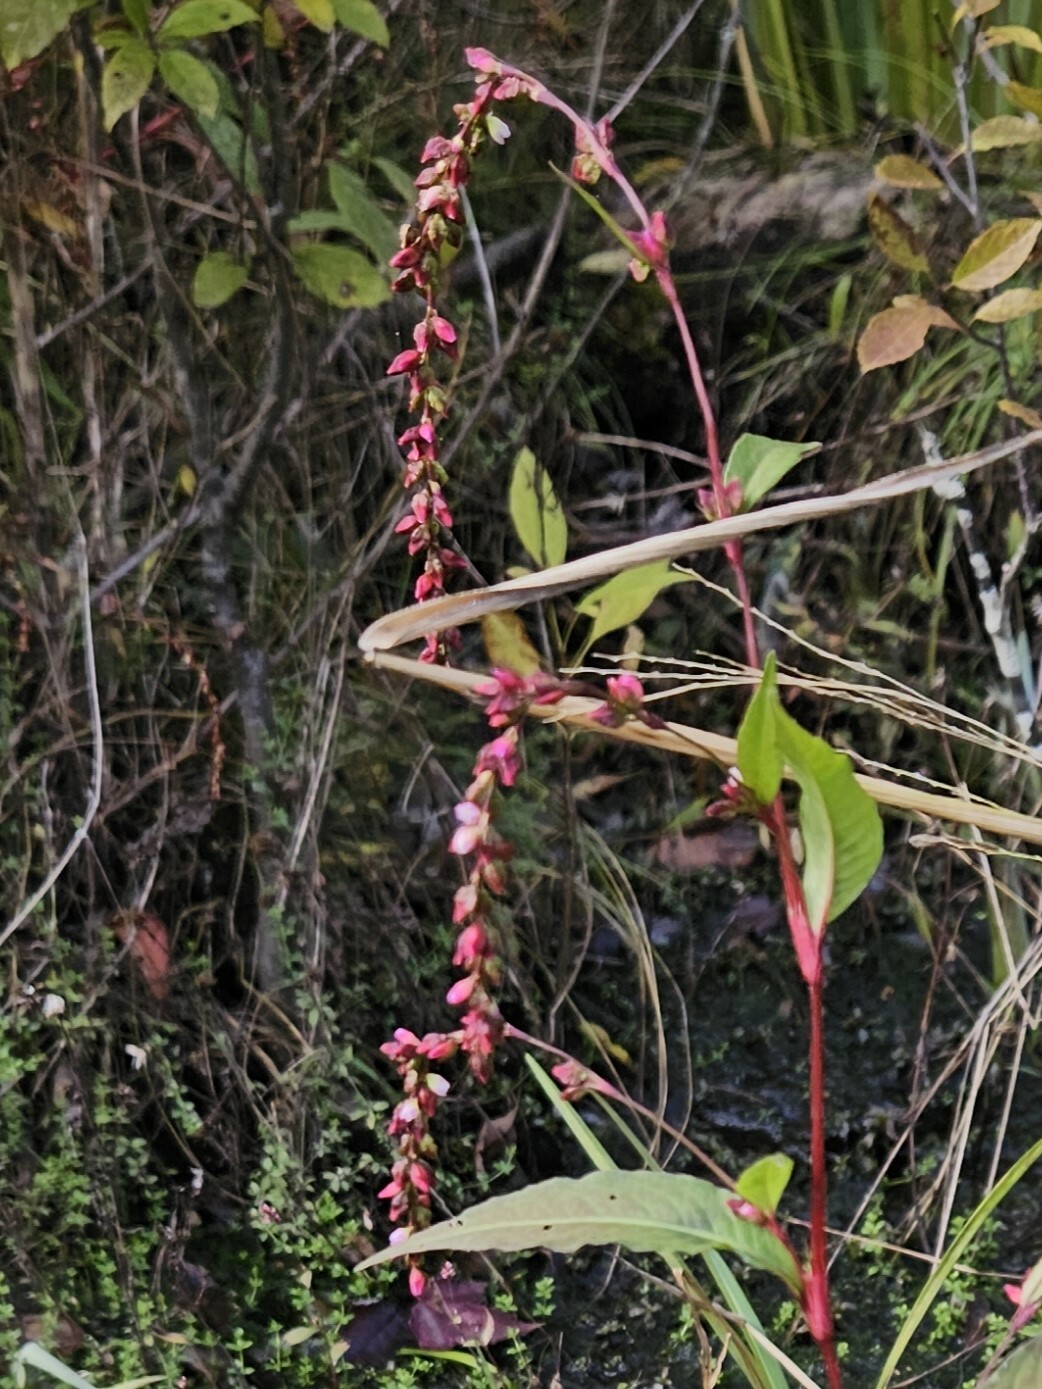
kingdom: Plantae
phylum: Tracheophyta
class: Magnoliopsida
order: Caryophyllales
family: Polygonaceae
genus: Persicaria
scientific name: Persicaria hydropiper
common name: Water-pepper
